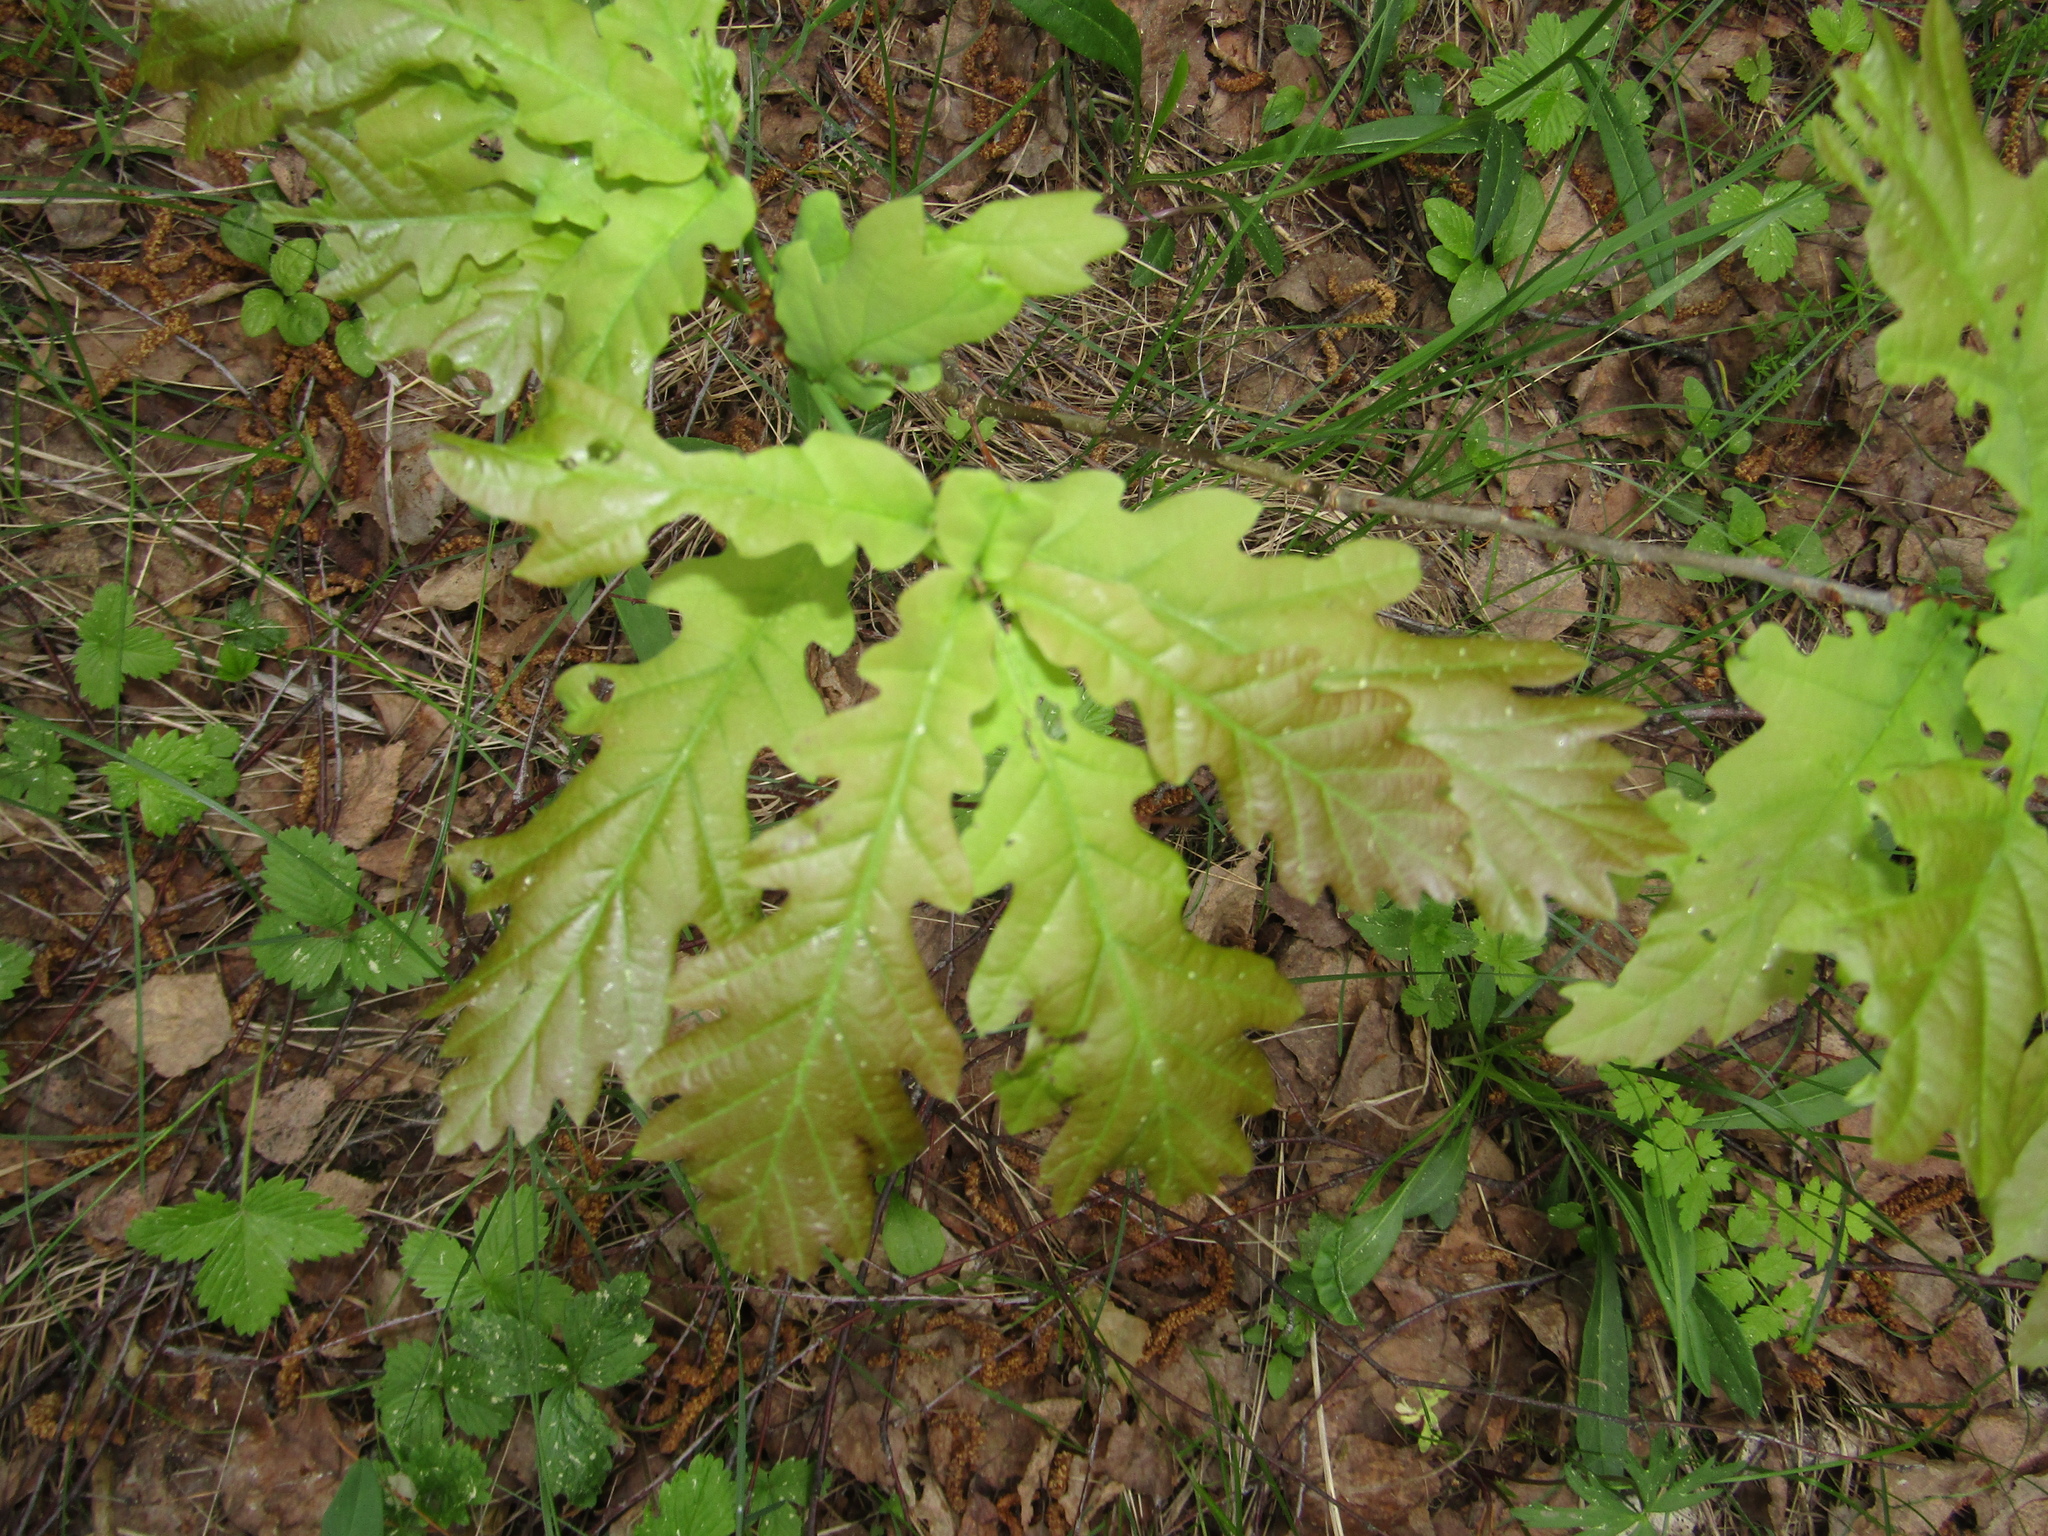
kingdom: Plantae
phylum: Tracheophyta
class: Magnoliopsida
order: Fagales
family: Fagaceae
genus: Quercus
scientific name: Quercus robur
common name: Pedunculate oak
